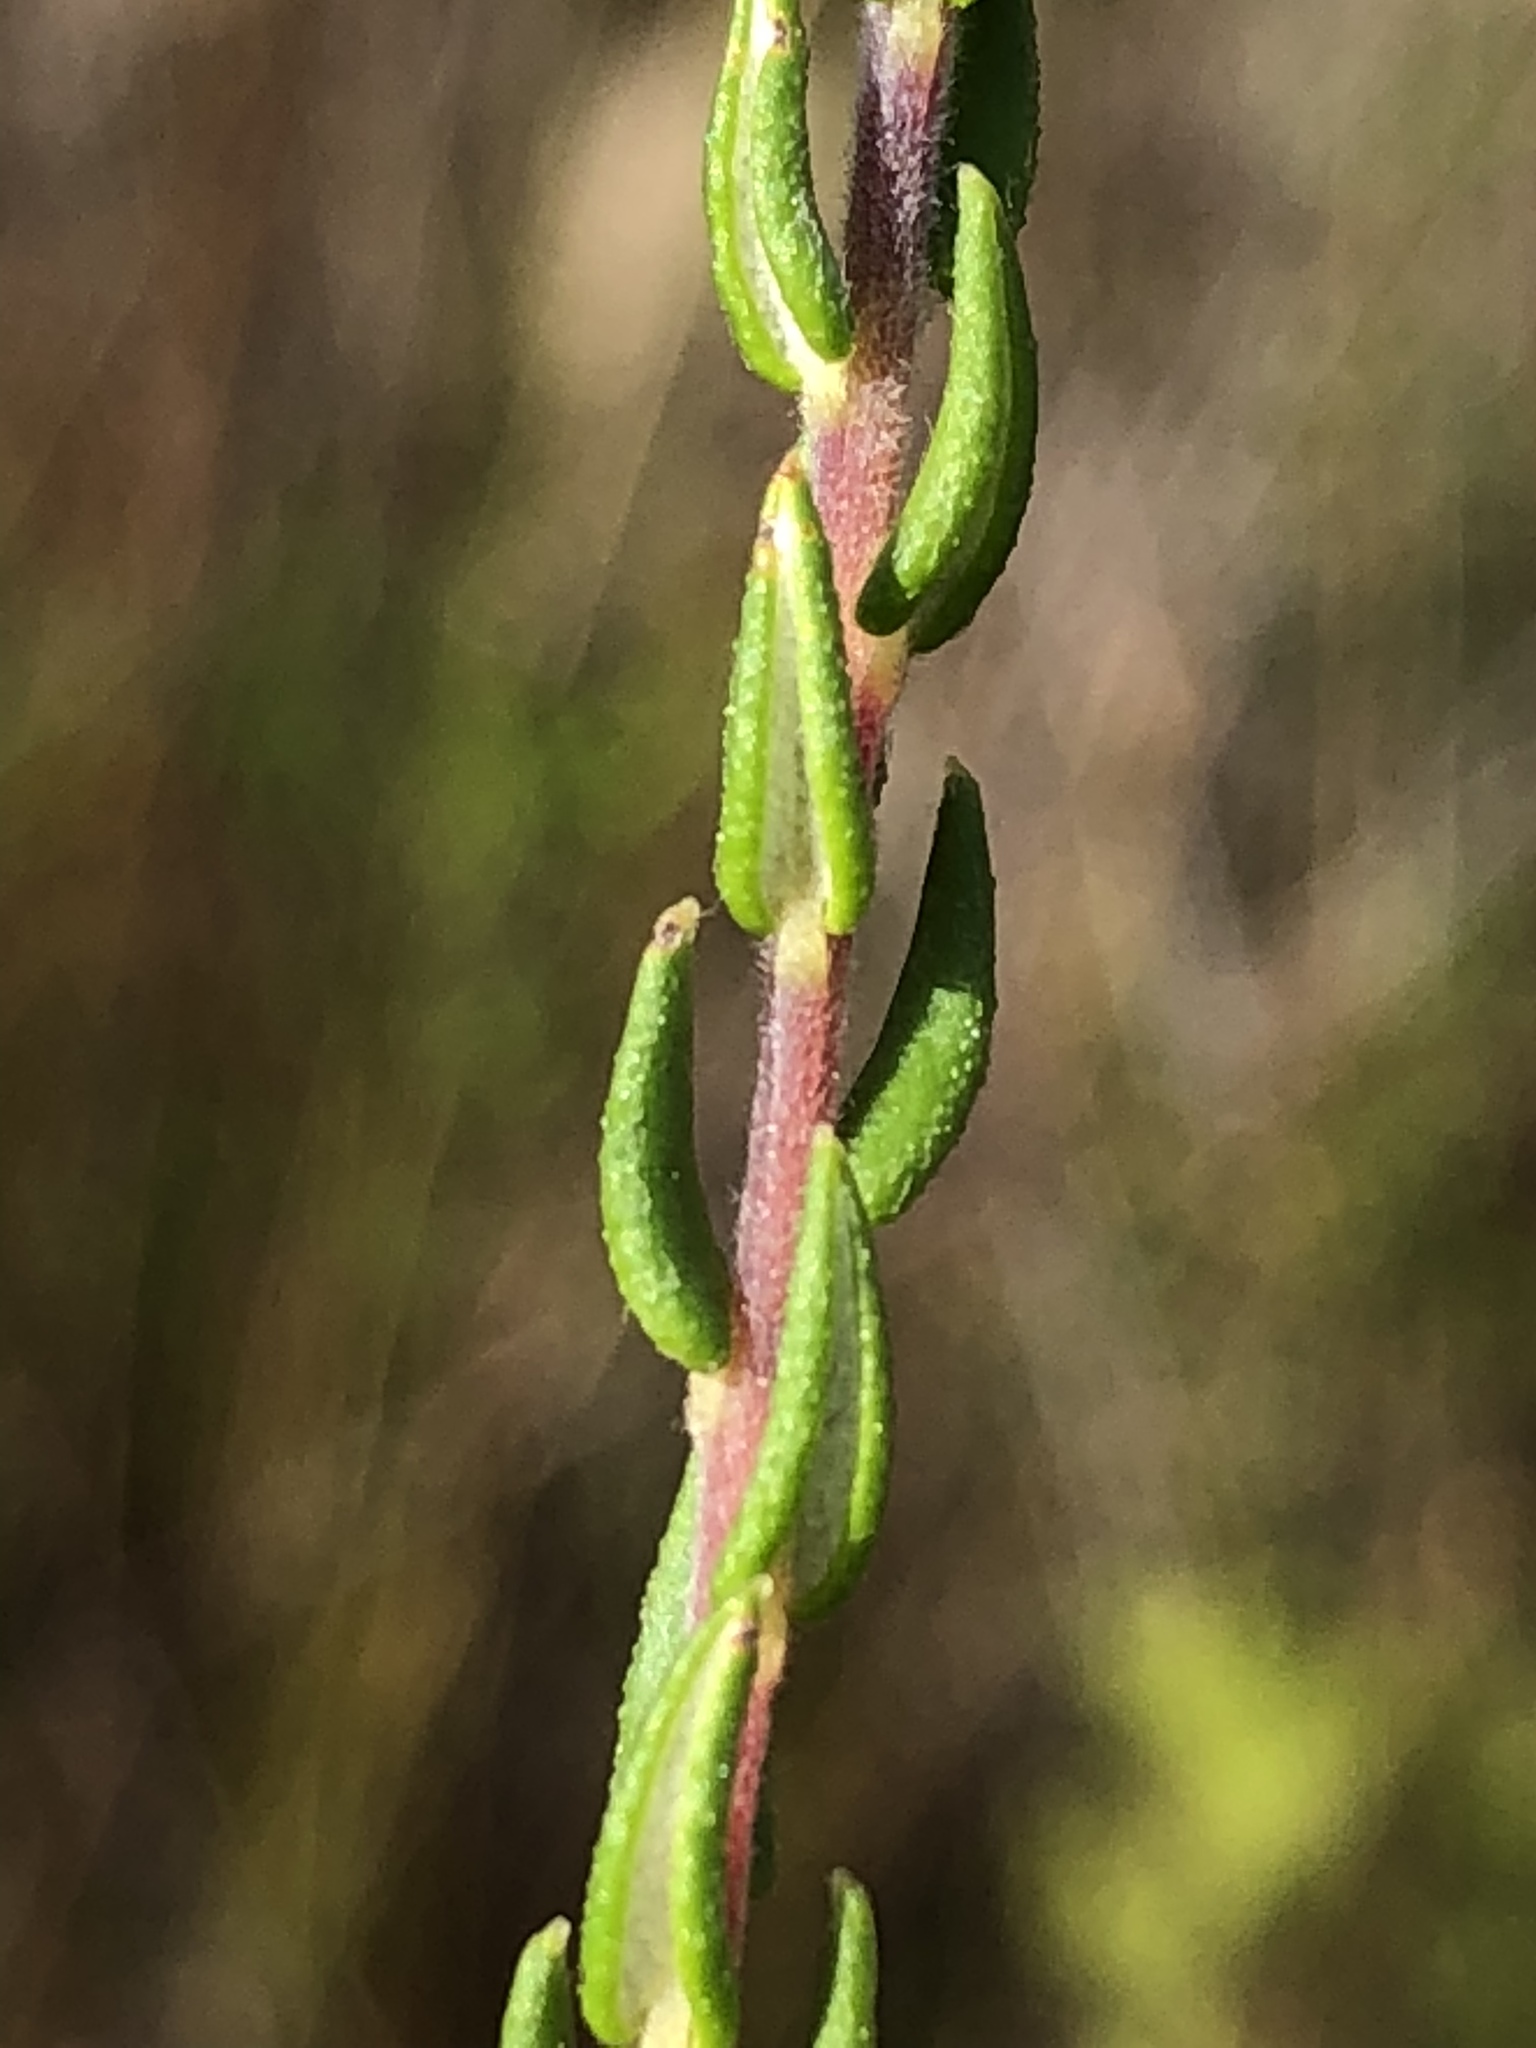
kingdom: Plantae
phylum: Tracheophyta
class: Magnoliopsida
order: Rosales
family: Rhamnaceae
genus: Phylica
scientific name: Phylica disticha
